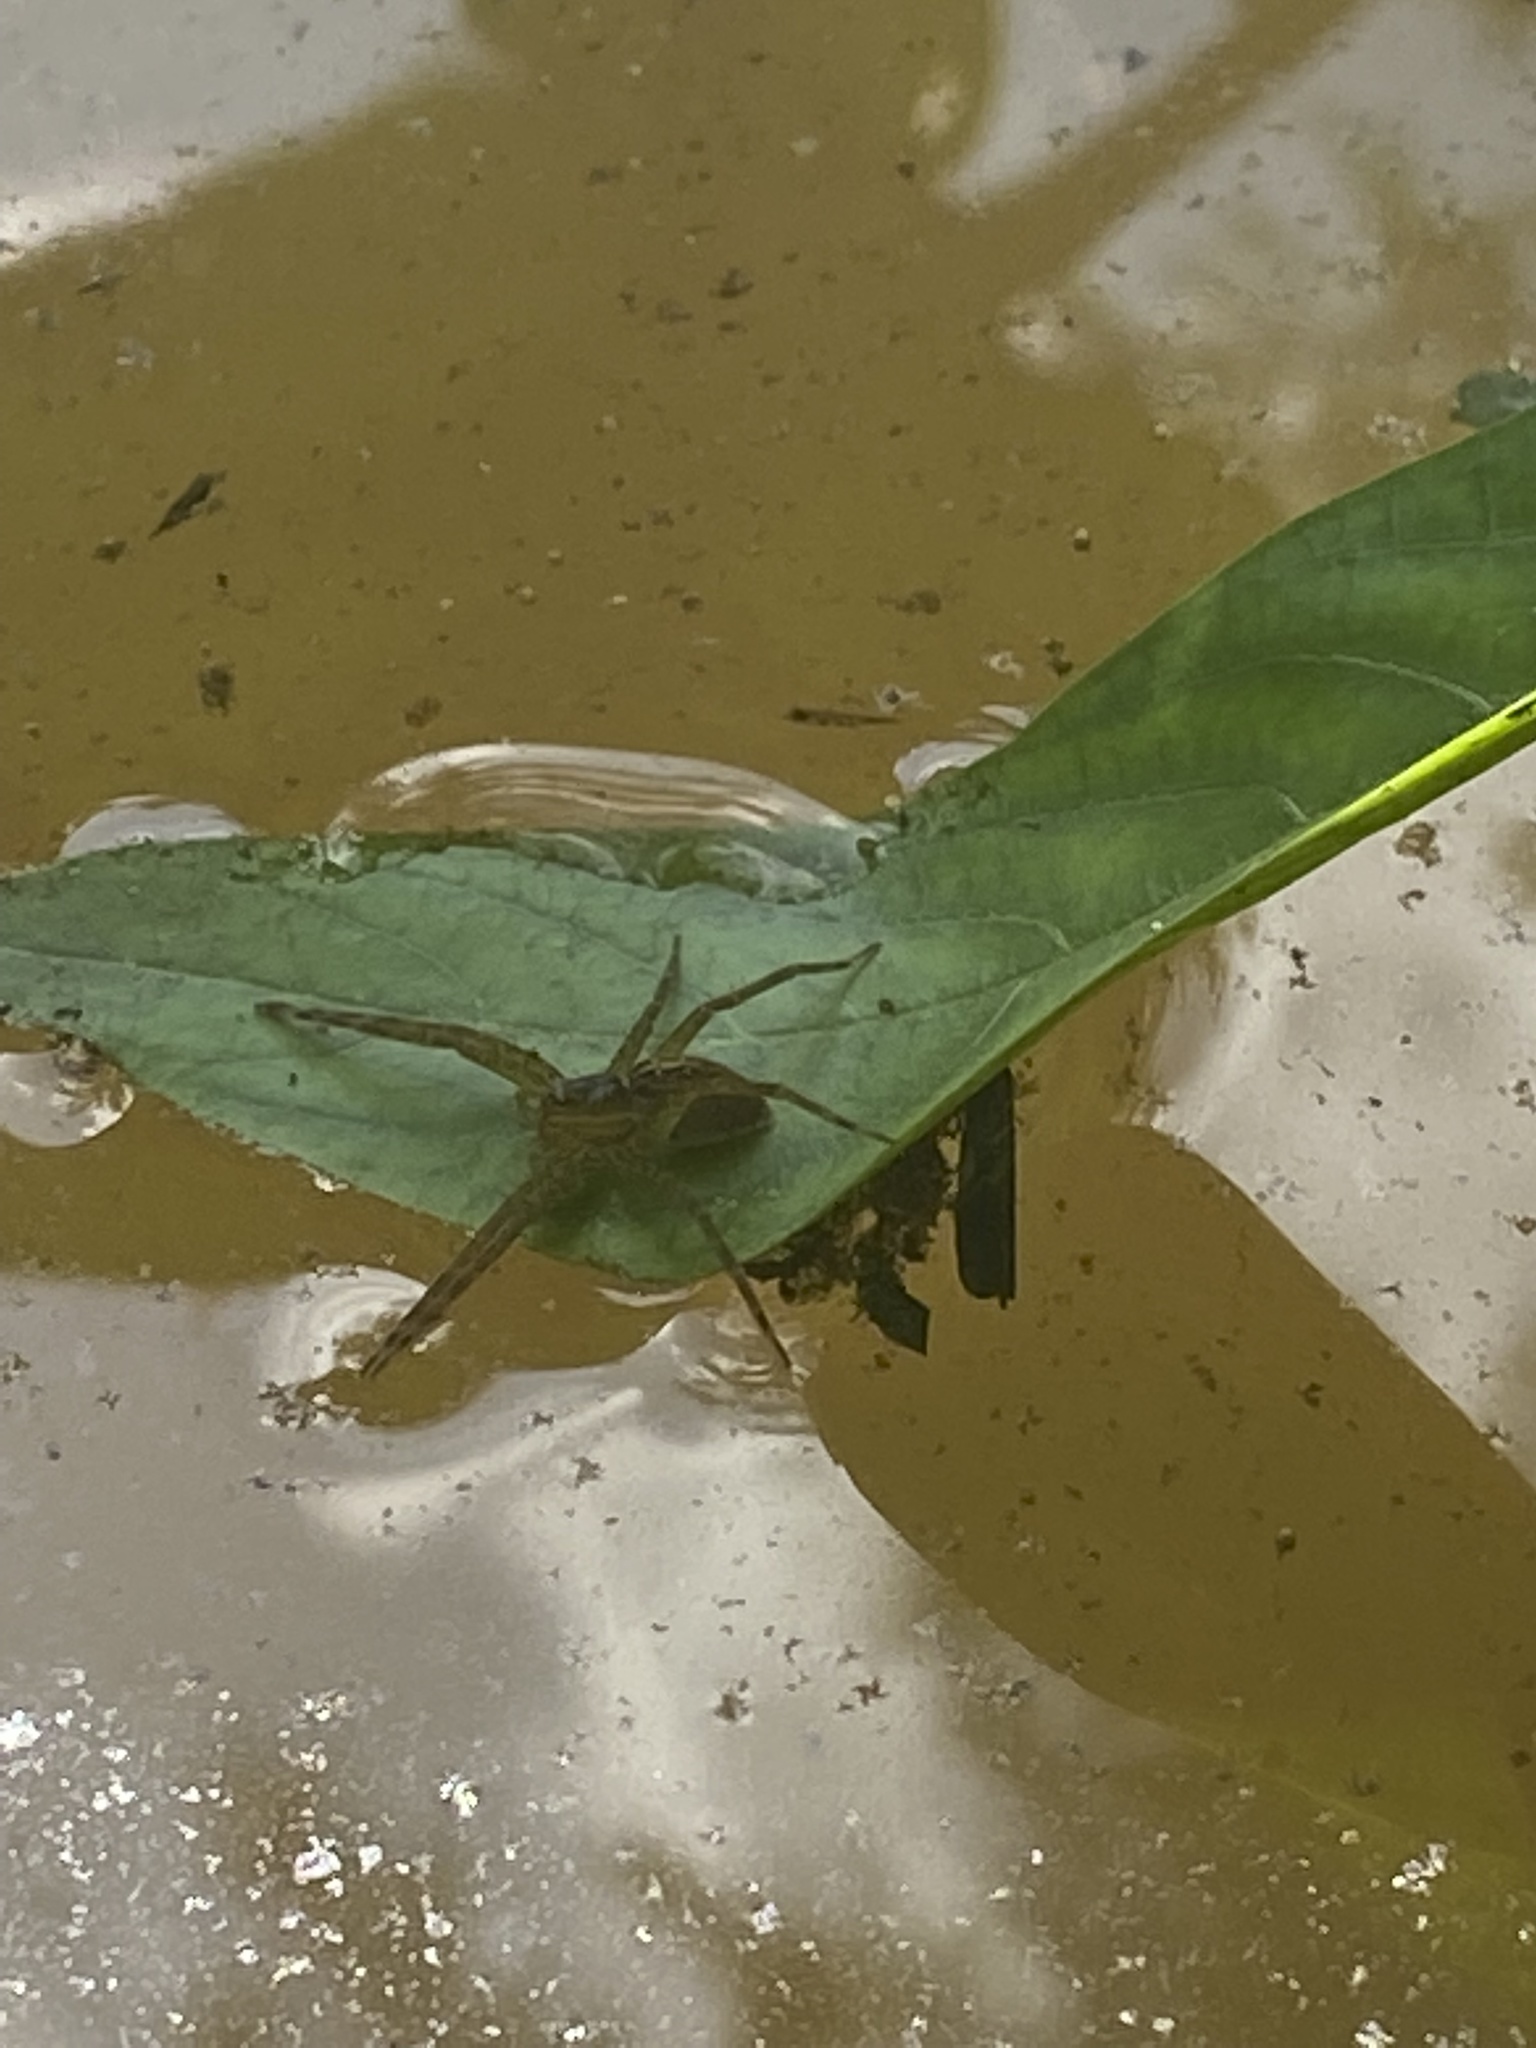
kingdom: Animalia
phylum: Arthropoda
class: Arachnida
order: Araneae
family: Pisauridae
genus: Dolomedes
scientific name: Dolomedes triton
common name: Six-spotted fishing spider
